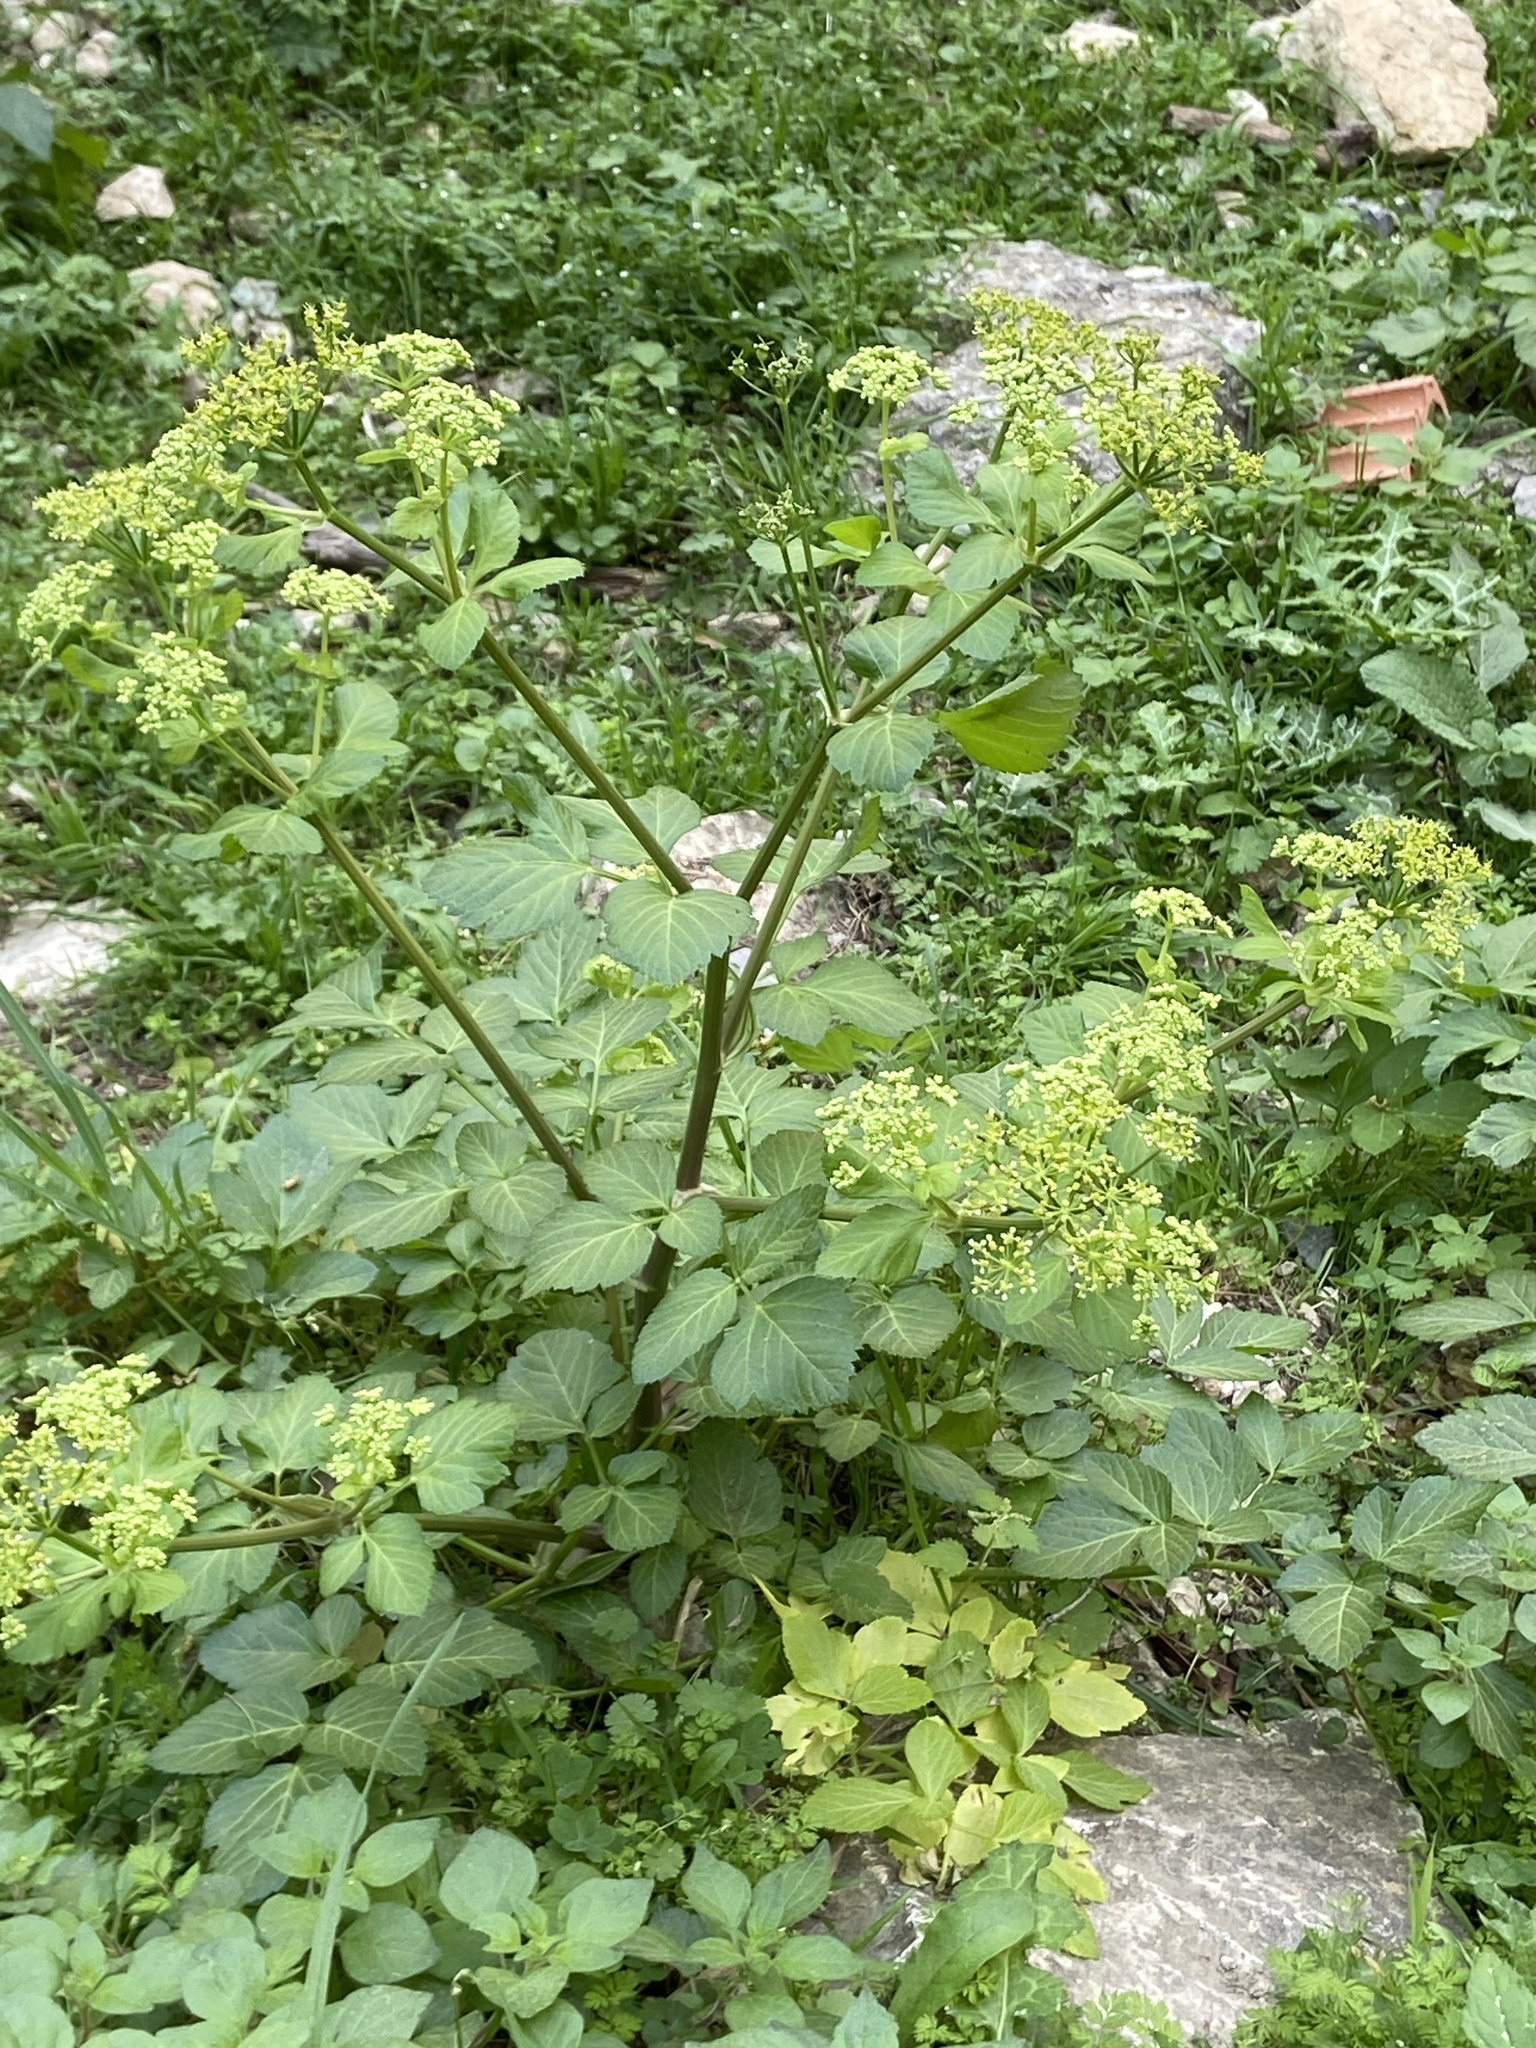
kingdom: Plantae
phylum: Tracheophyta
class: Magnoliopsida
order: Apiales
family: Apiaceae
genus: Smyrnium
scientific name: Smyrnium olusatrum
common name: Alexanders
